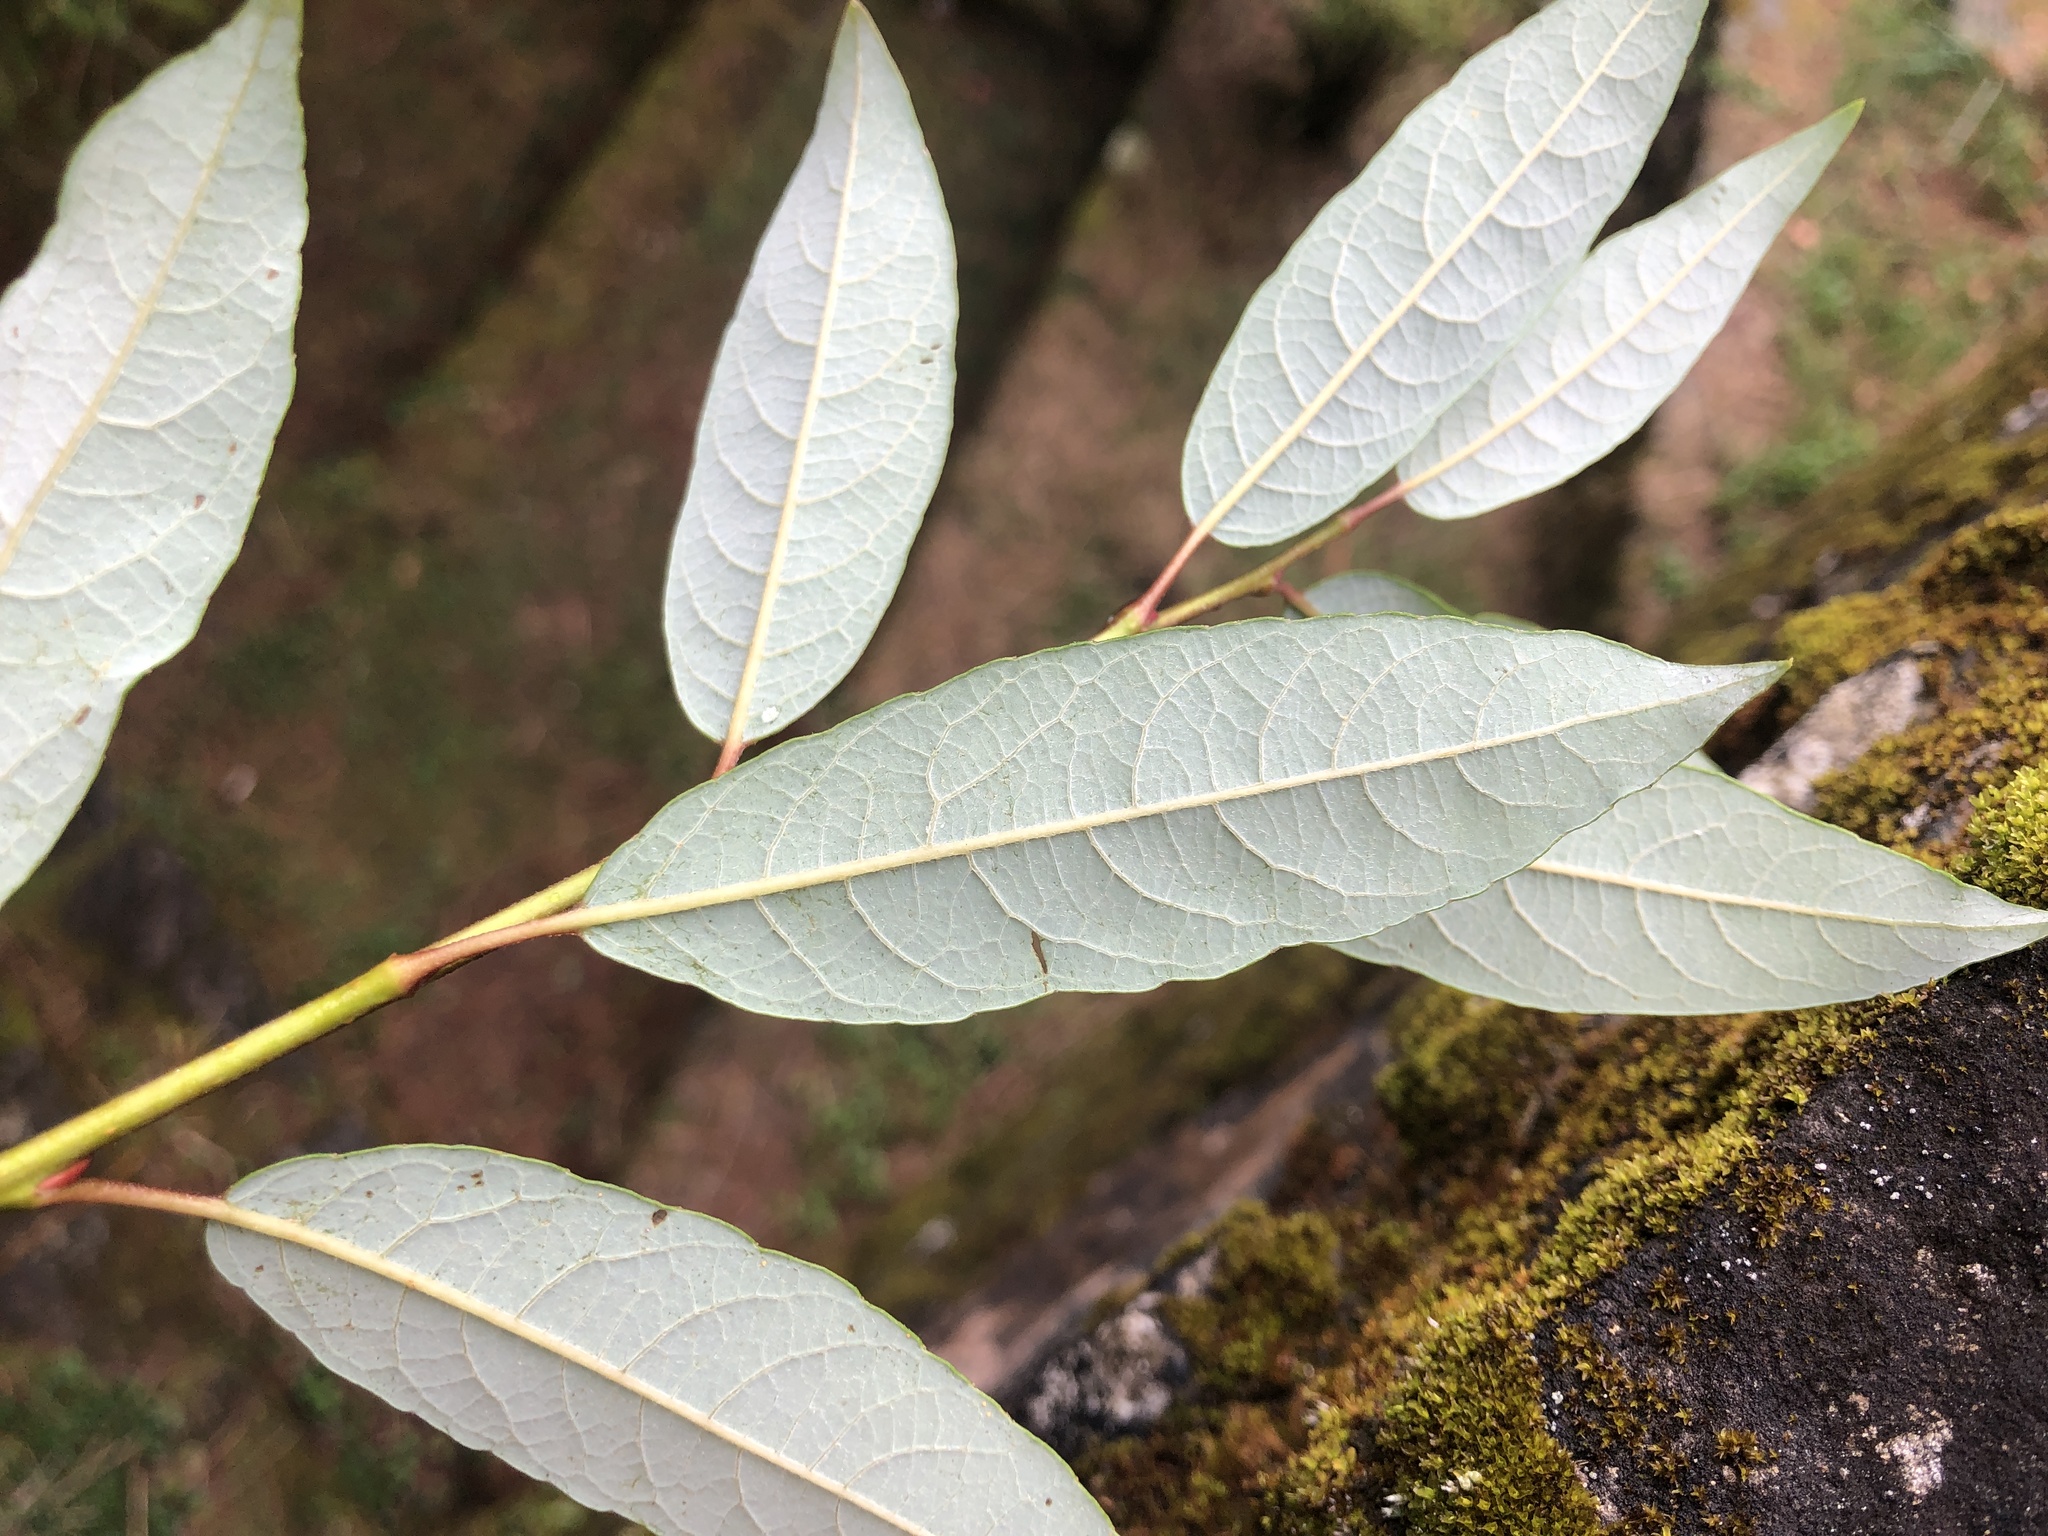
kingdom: Plantae
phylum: Tracheophyta
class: Magnoliopsida
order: Malpighiales
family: Salicaceae
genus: Salix
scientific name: Salix fulvopubescens
